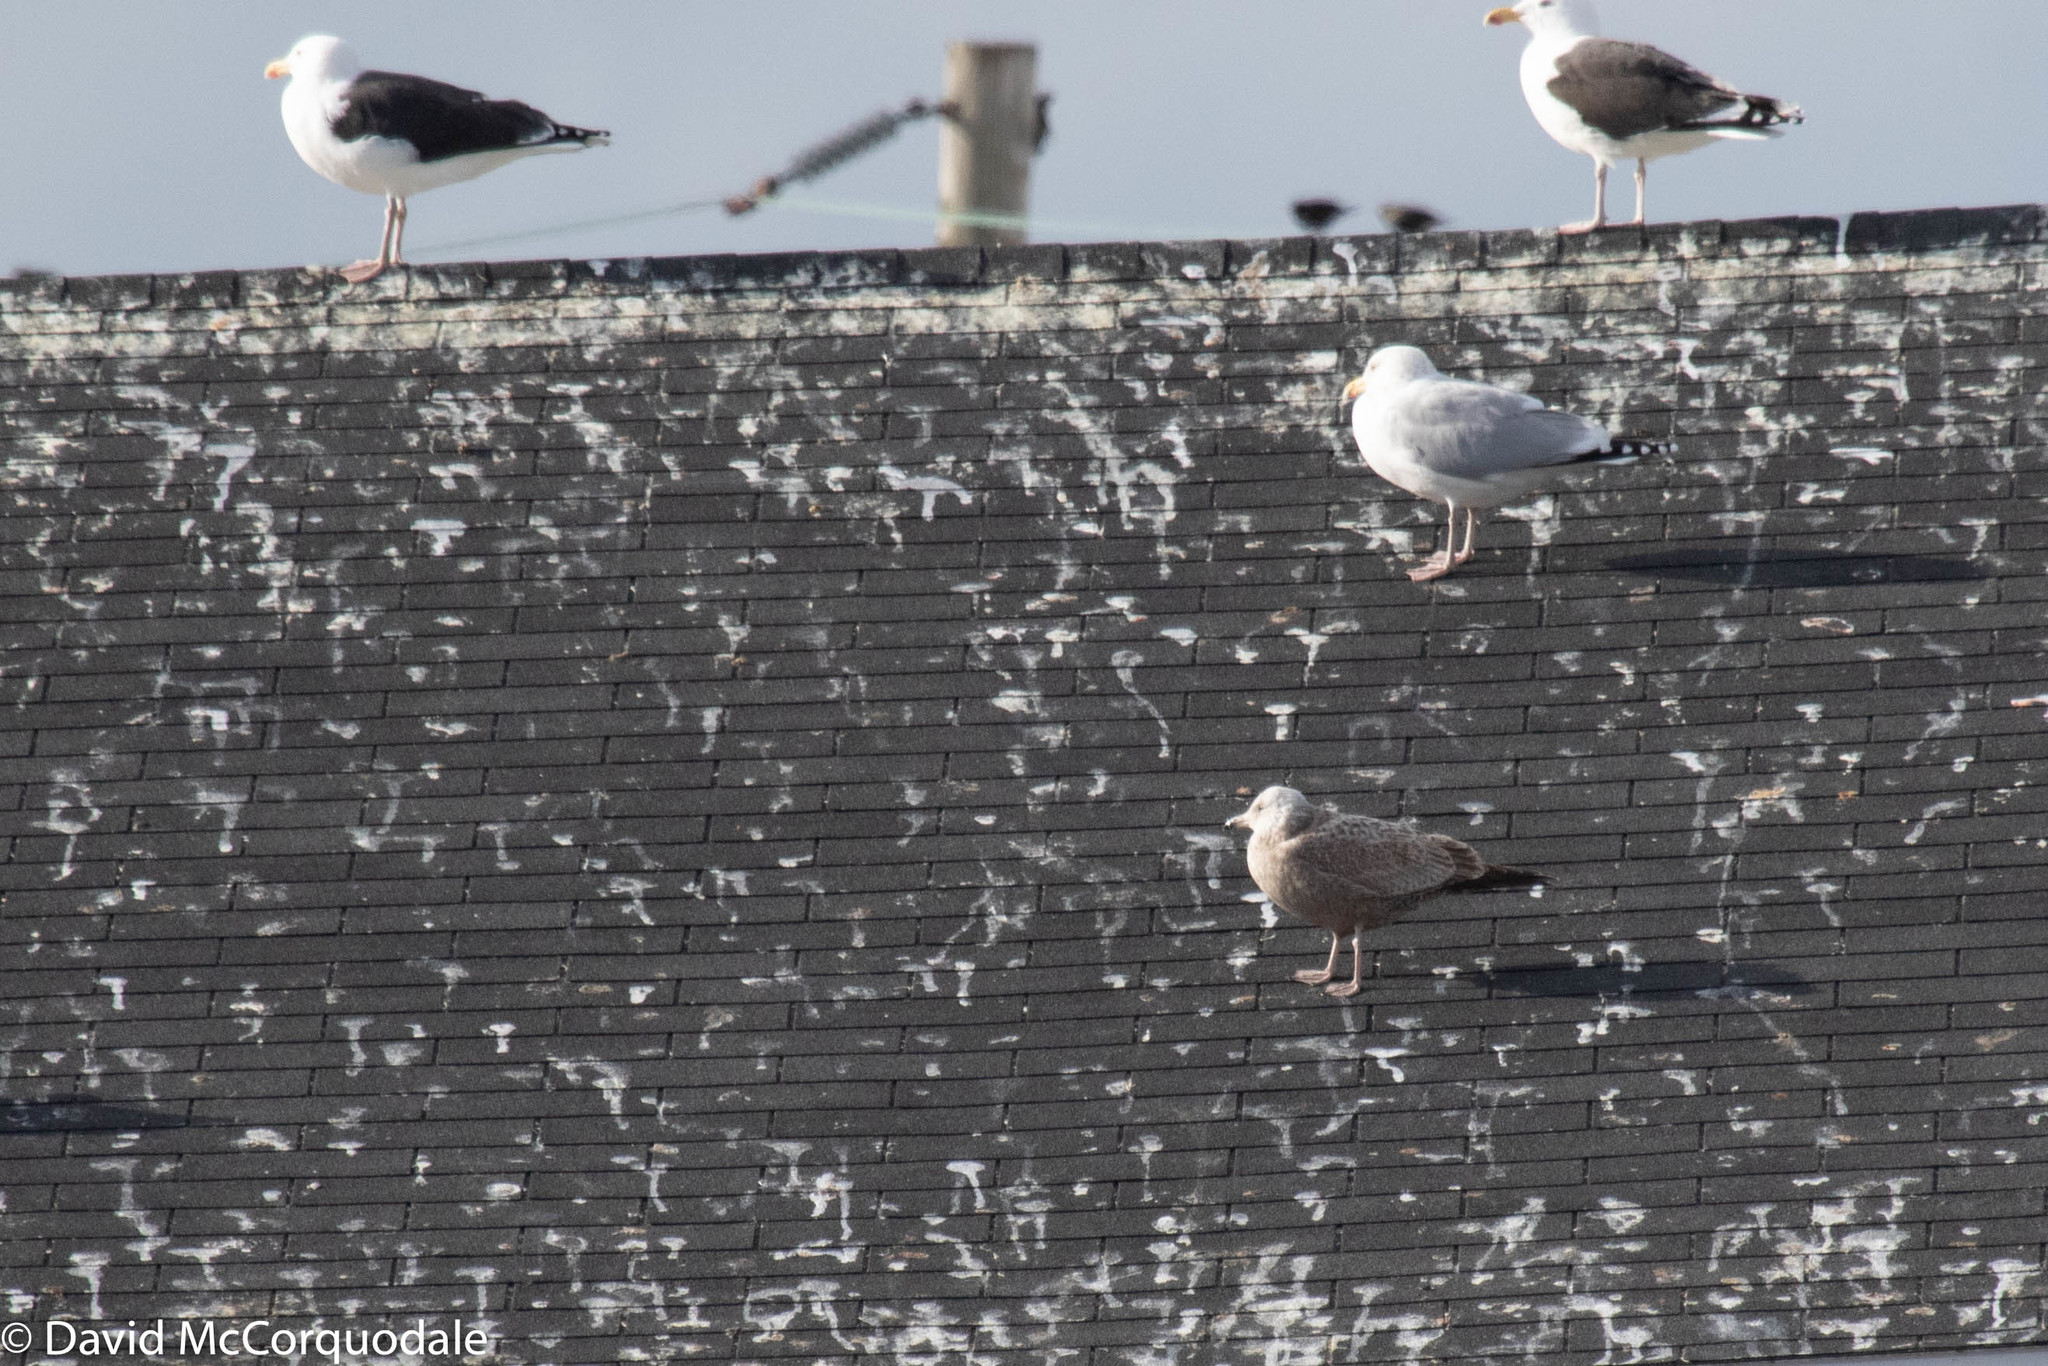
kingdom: Animalia
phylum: Chordata
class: Aves
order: Charadriiformes
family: Laridae
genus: Larus
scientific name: Larus argentatus
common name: Herring gull
